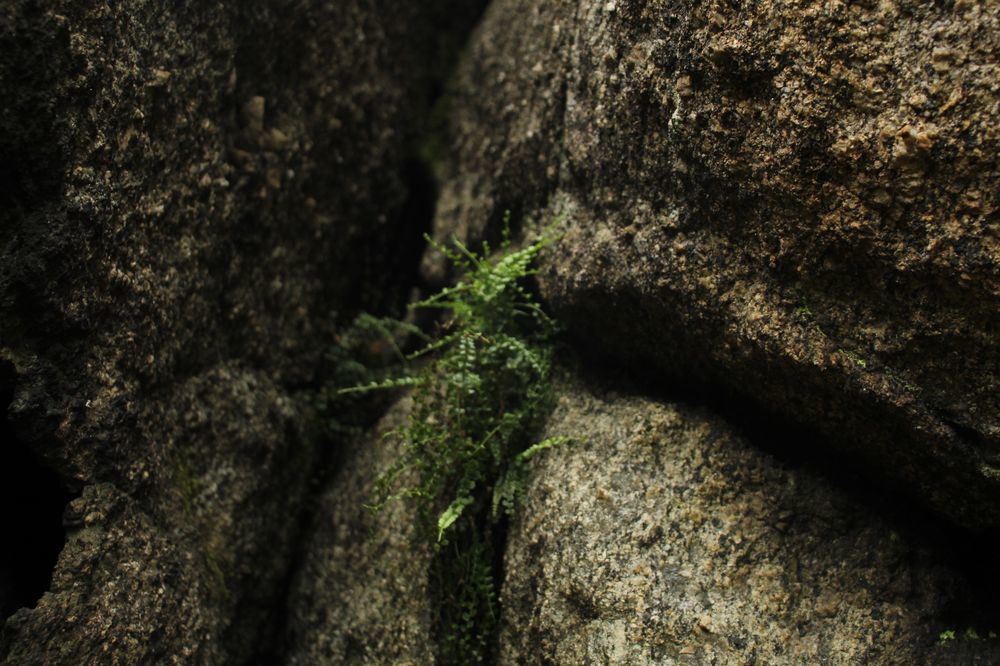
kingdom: Plantae
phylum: Tracheophyta
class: Polypodiopsida
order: Polypodiales
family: Aspleniaceae
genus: Asplenium
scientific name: Asplenium flabellifolium
